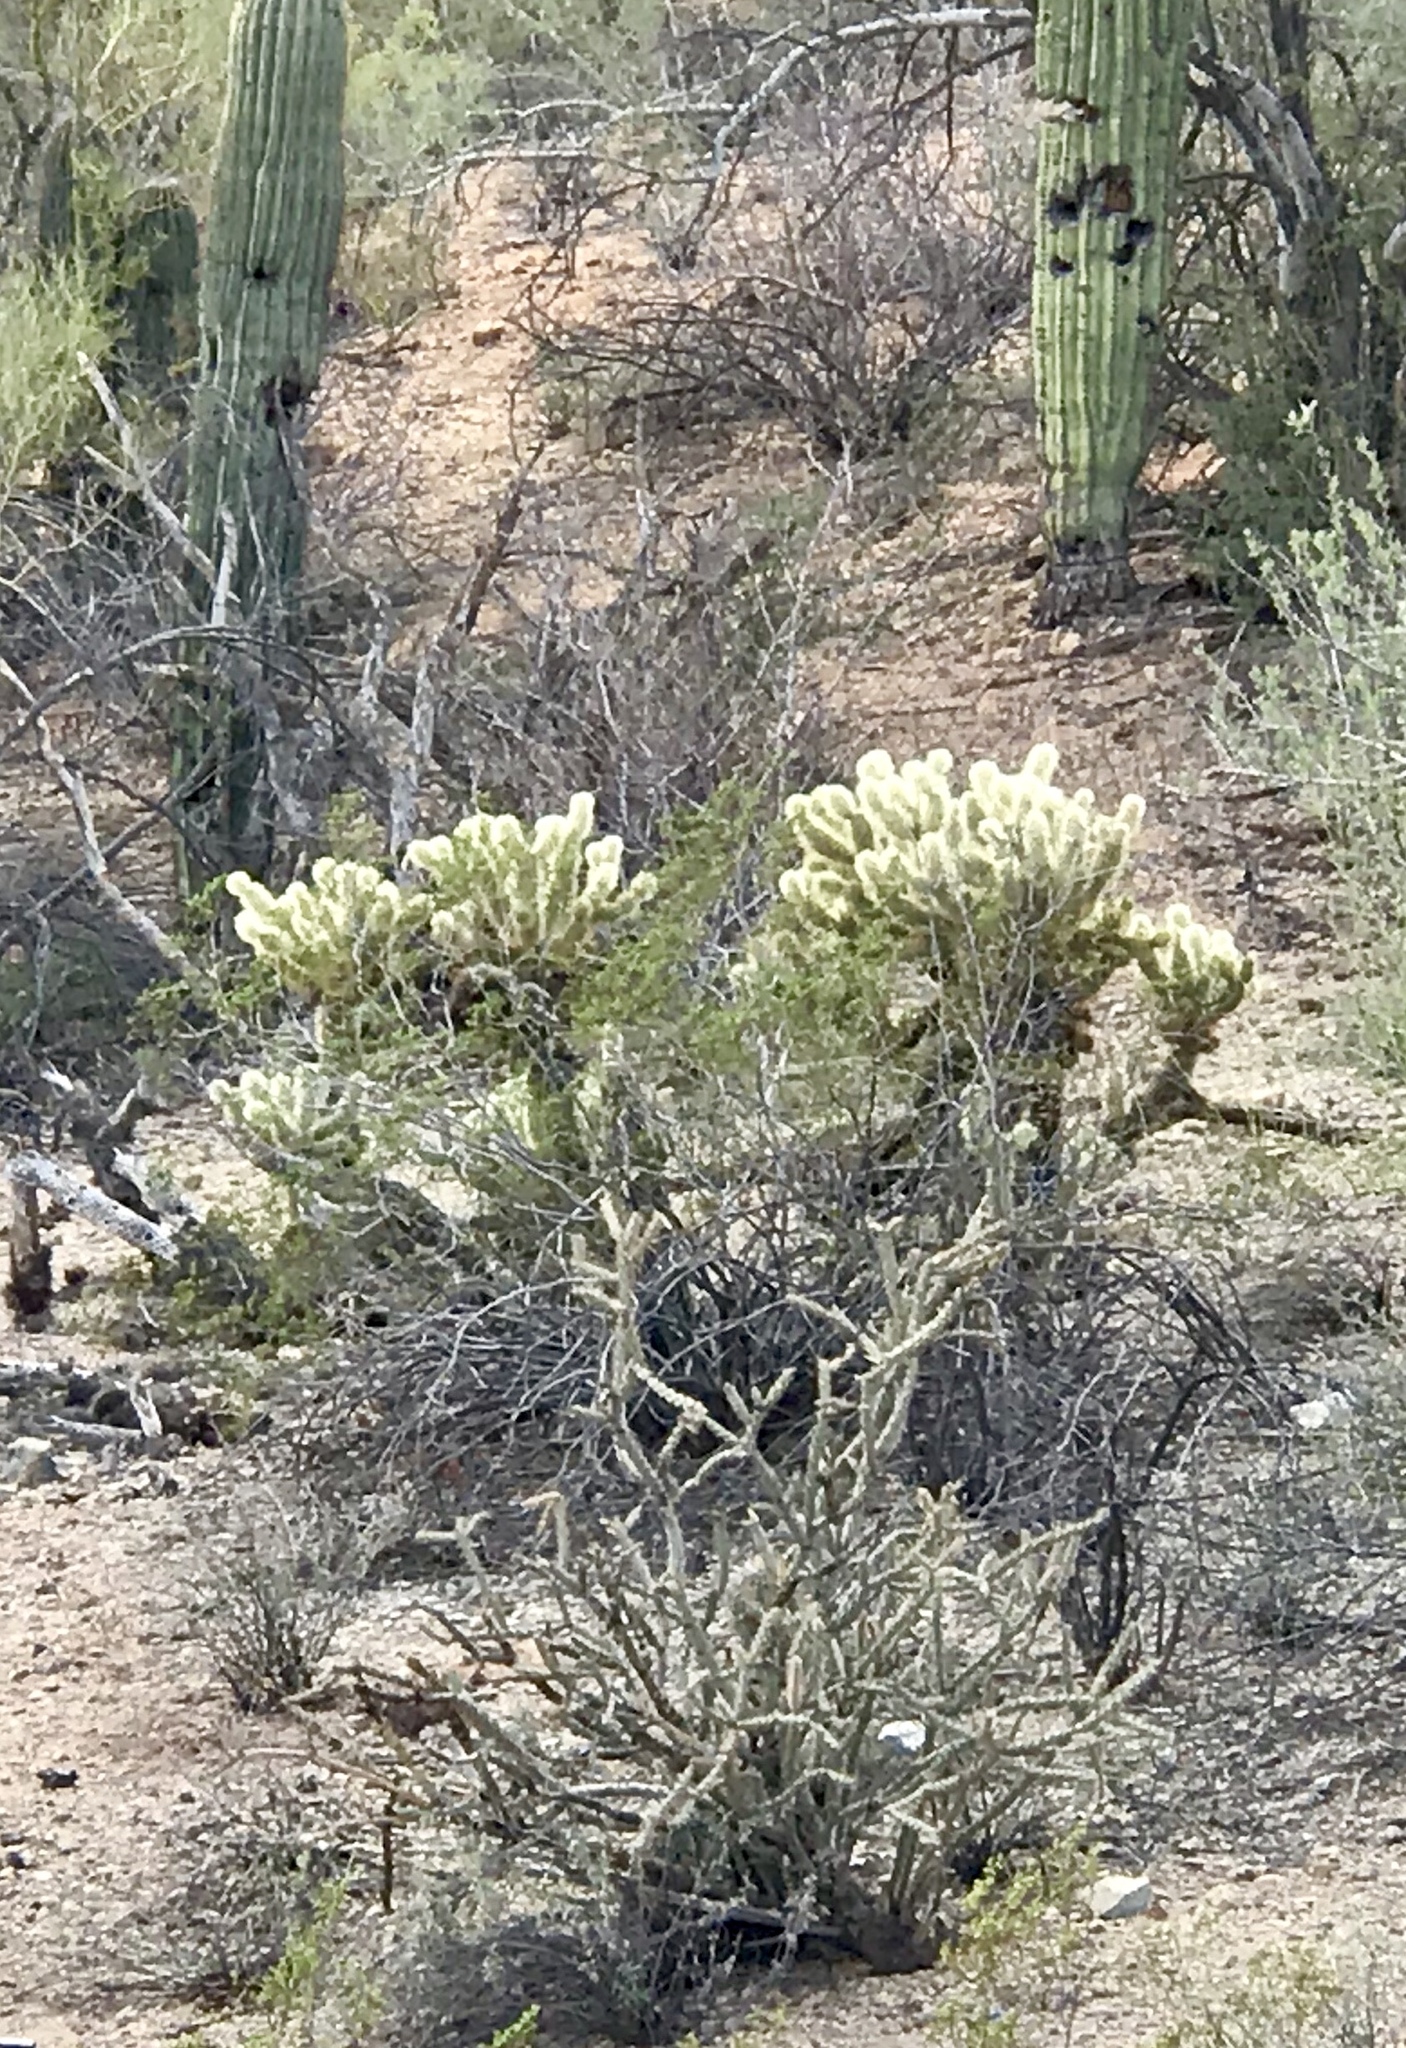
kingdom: Plantae
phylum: Tracheophyta
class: Magnoliopsida
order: Caryophyllales
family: Cactaceae
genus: Cylindropuntia
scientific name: Cylindropuntia fosbergii
